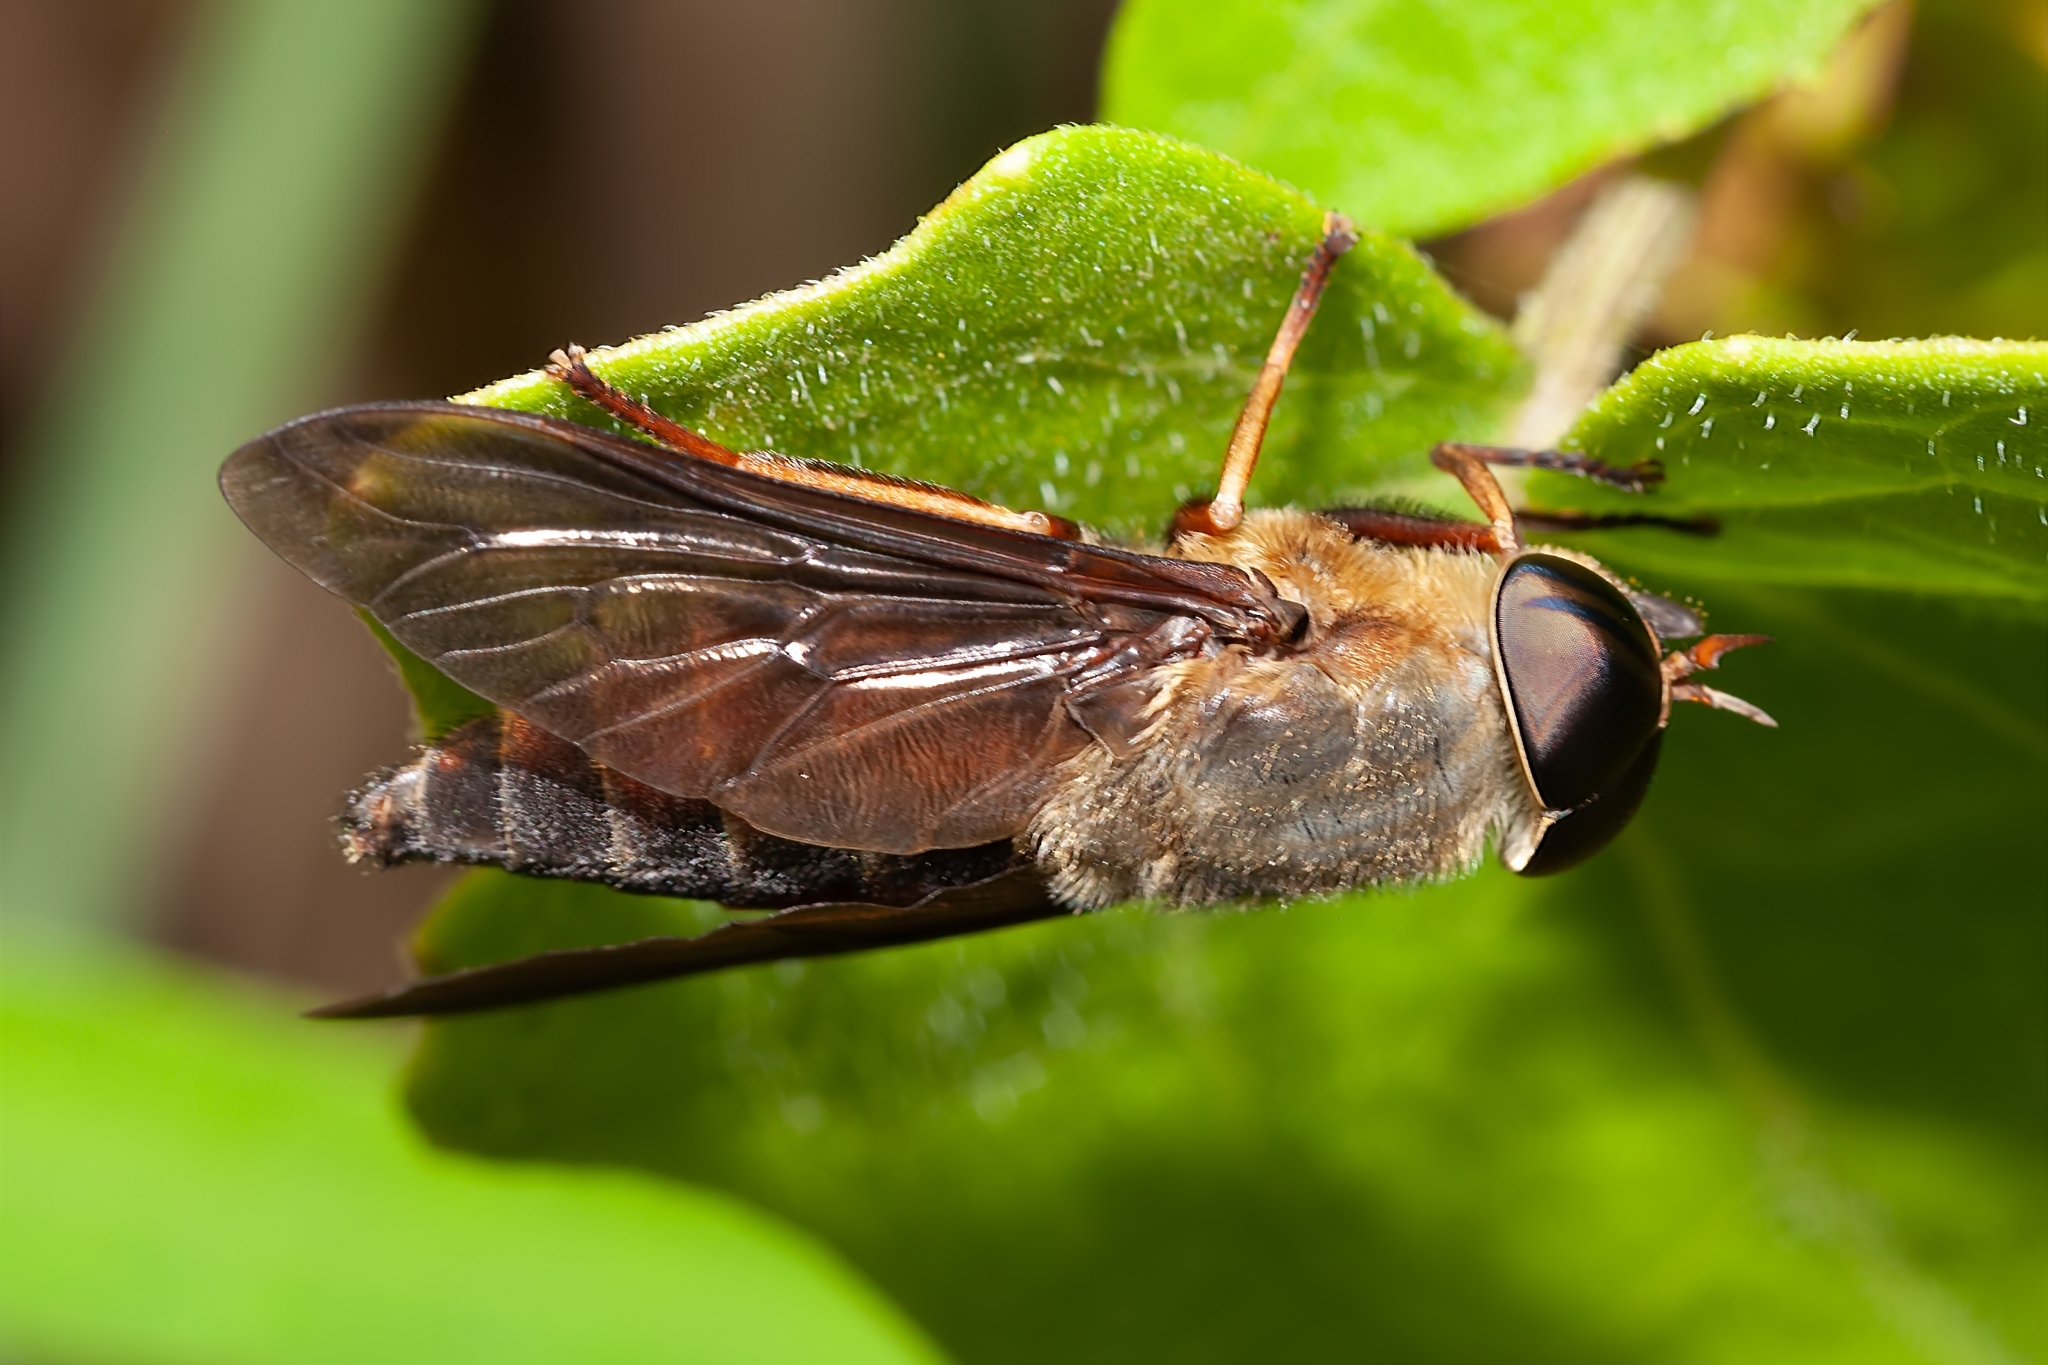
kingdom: Animalia
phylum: Arthropoda
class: Insecta
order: Diptera
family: Tabanidae
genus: Tabanus
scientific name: Tabanus fumipennis
